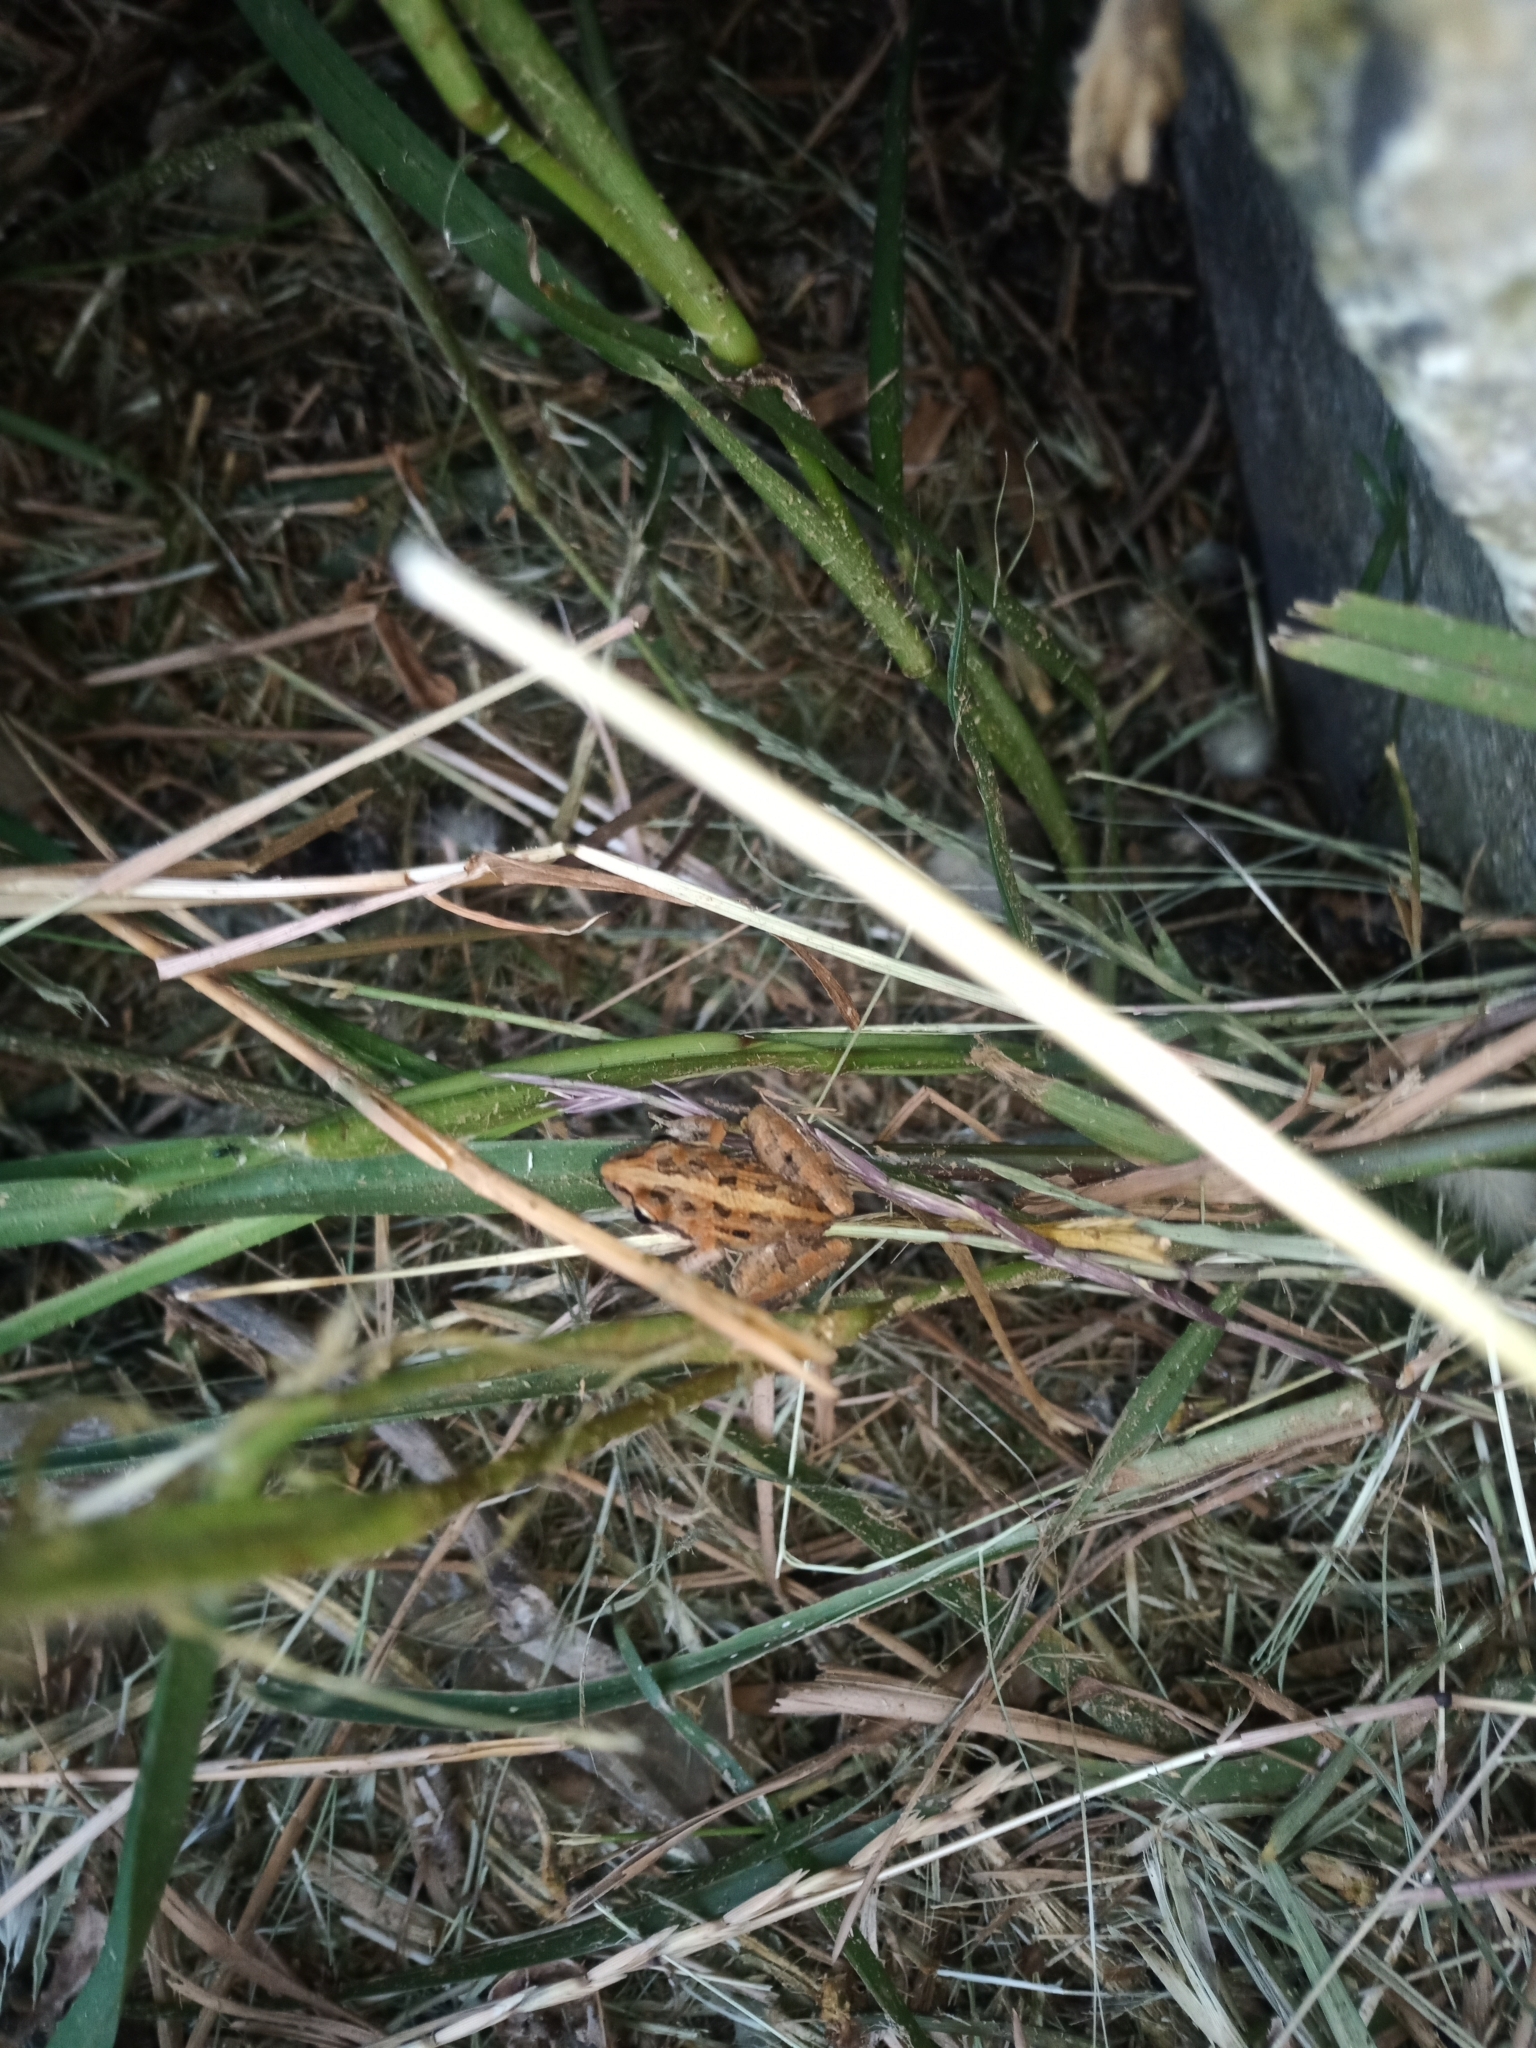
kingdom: Animalia
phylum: Chordata
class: Amphibia
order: Anura
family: Pyxicephalidae
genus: Strongylopus
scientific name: Strongylopus grayii
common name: Gray's stream frog
